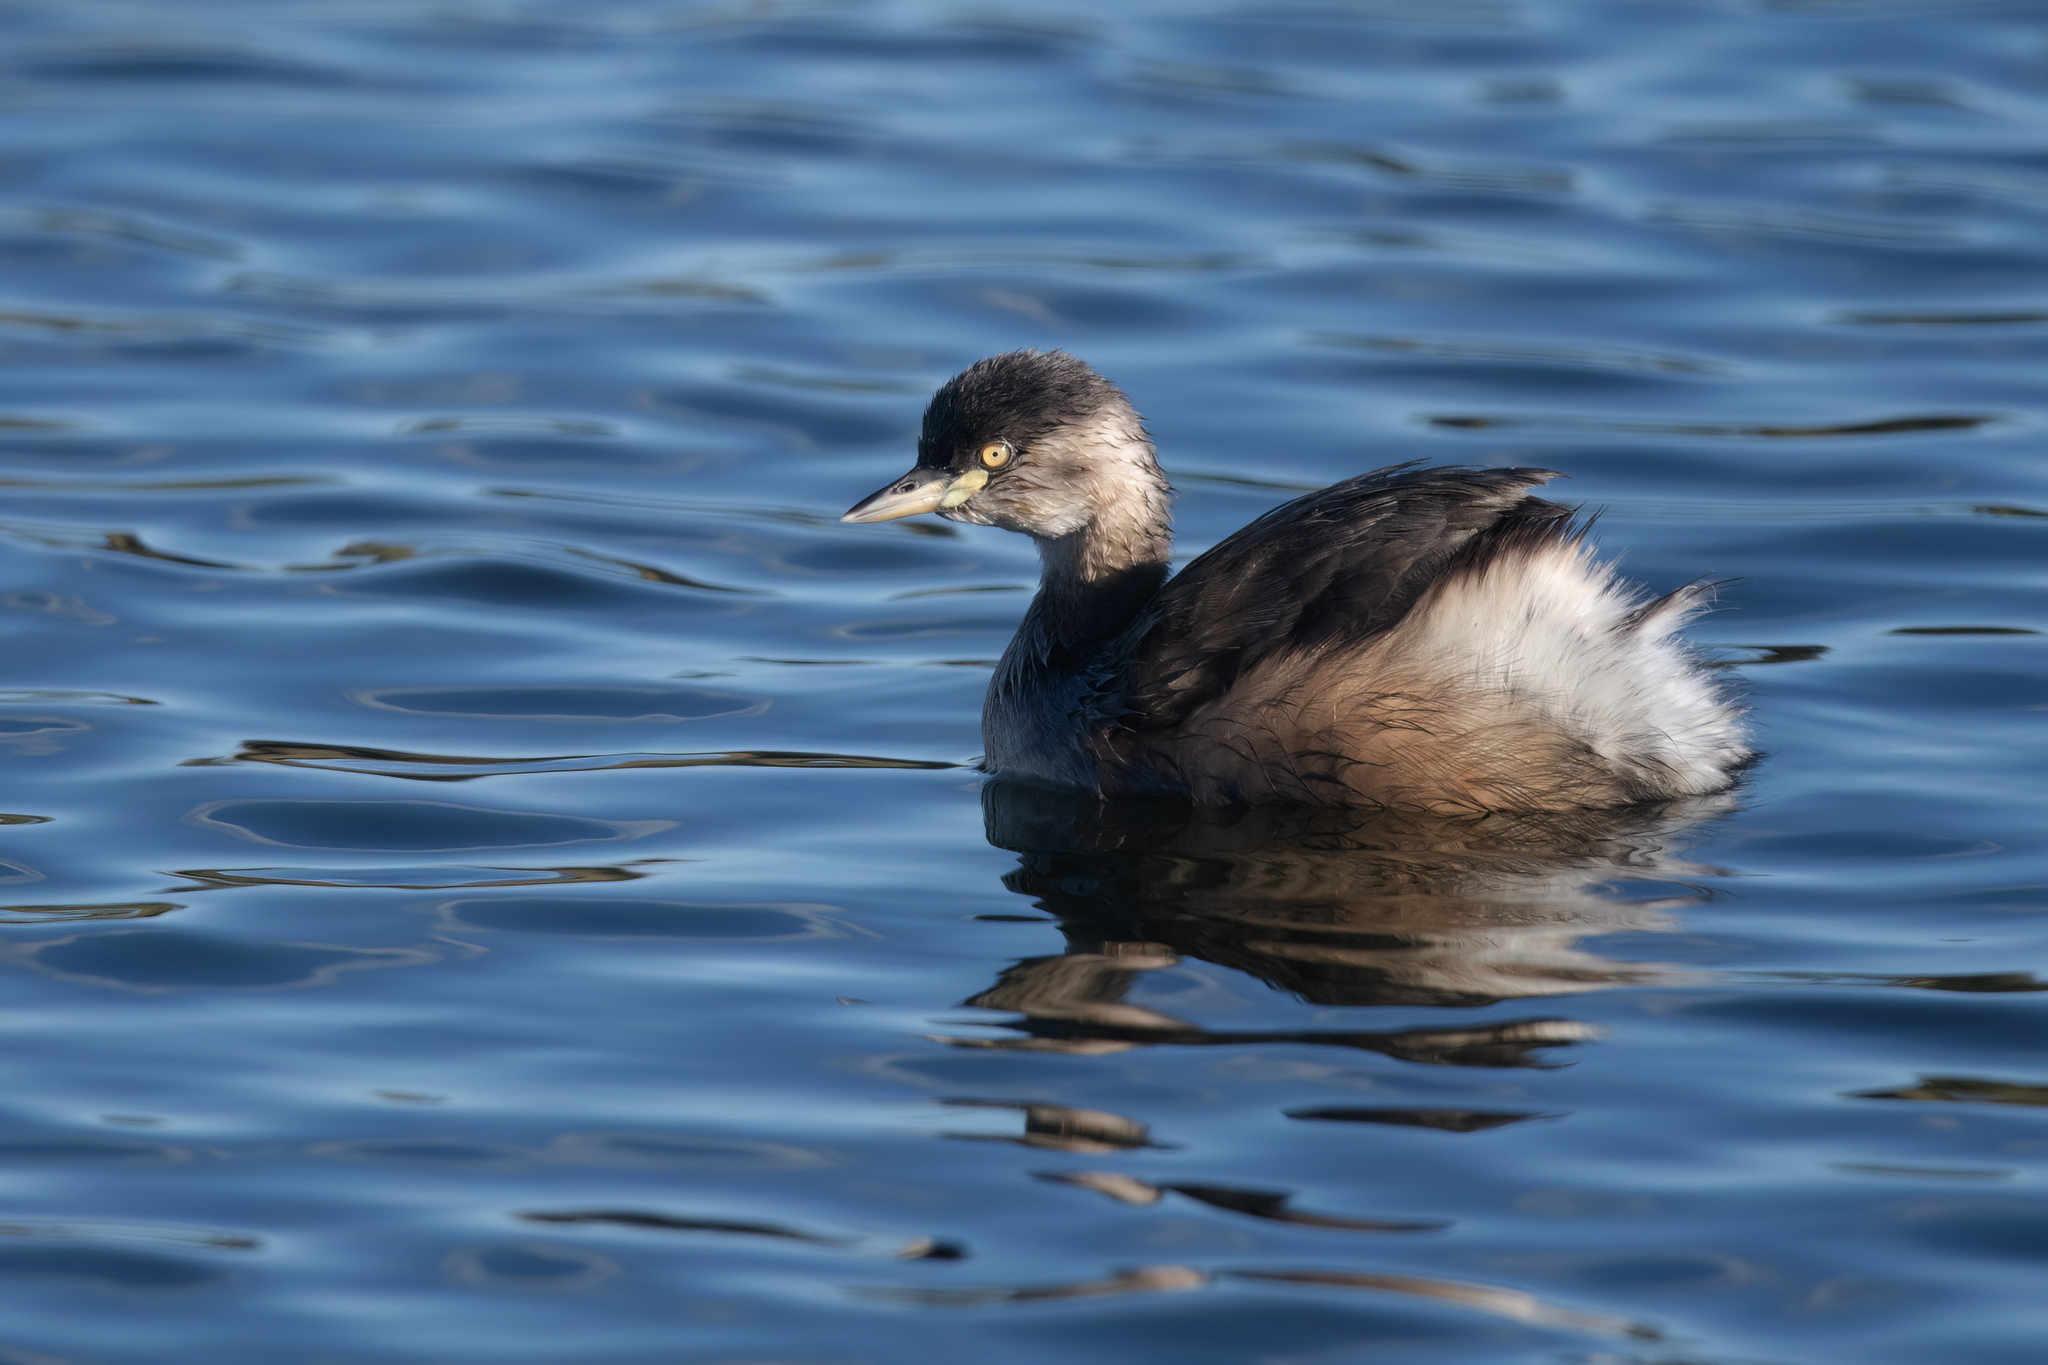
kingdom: Animalia
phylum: Chordata
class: Aves
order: Podicipediformes
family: Podicipedidae
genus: Tachybaptus
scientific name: Tachybaptus novaehollandiae
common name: Australasian grebe
